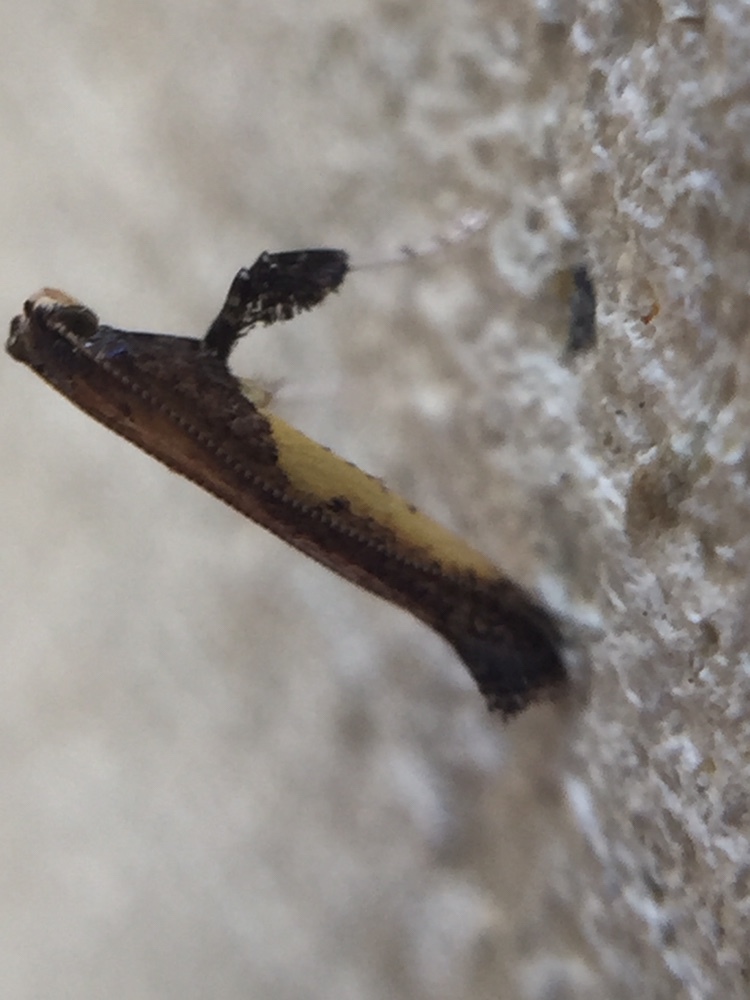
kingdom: Animalia
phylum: Arthropoda
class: Insecta
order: Lepidoptera
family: Gracillariidae
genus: Caloptilia
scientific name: Caloptilia azaleella
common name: Azalea leafminer
